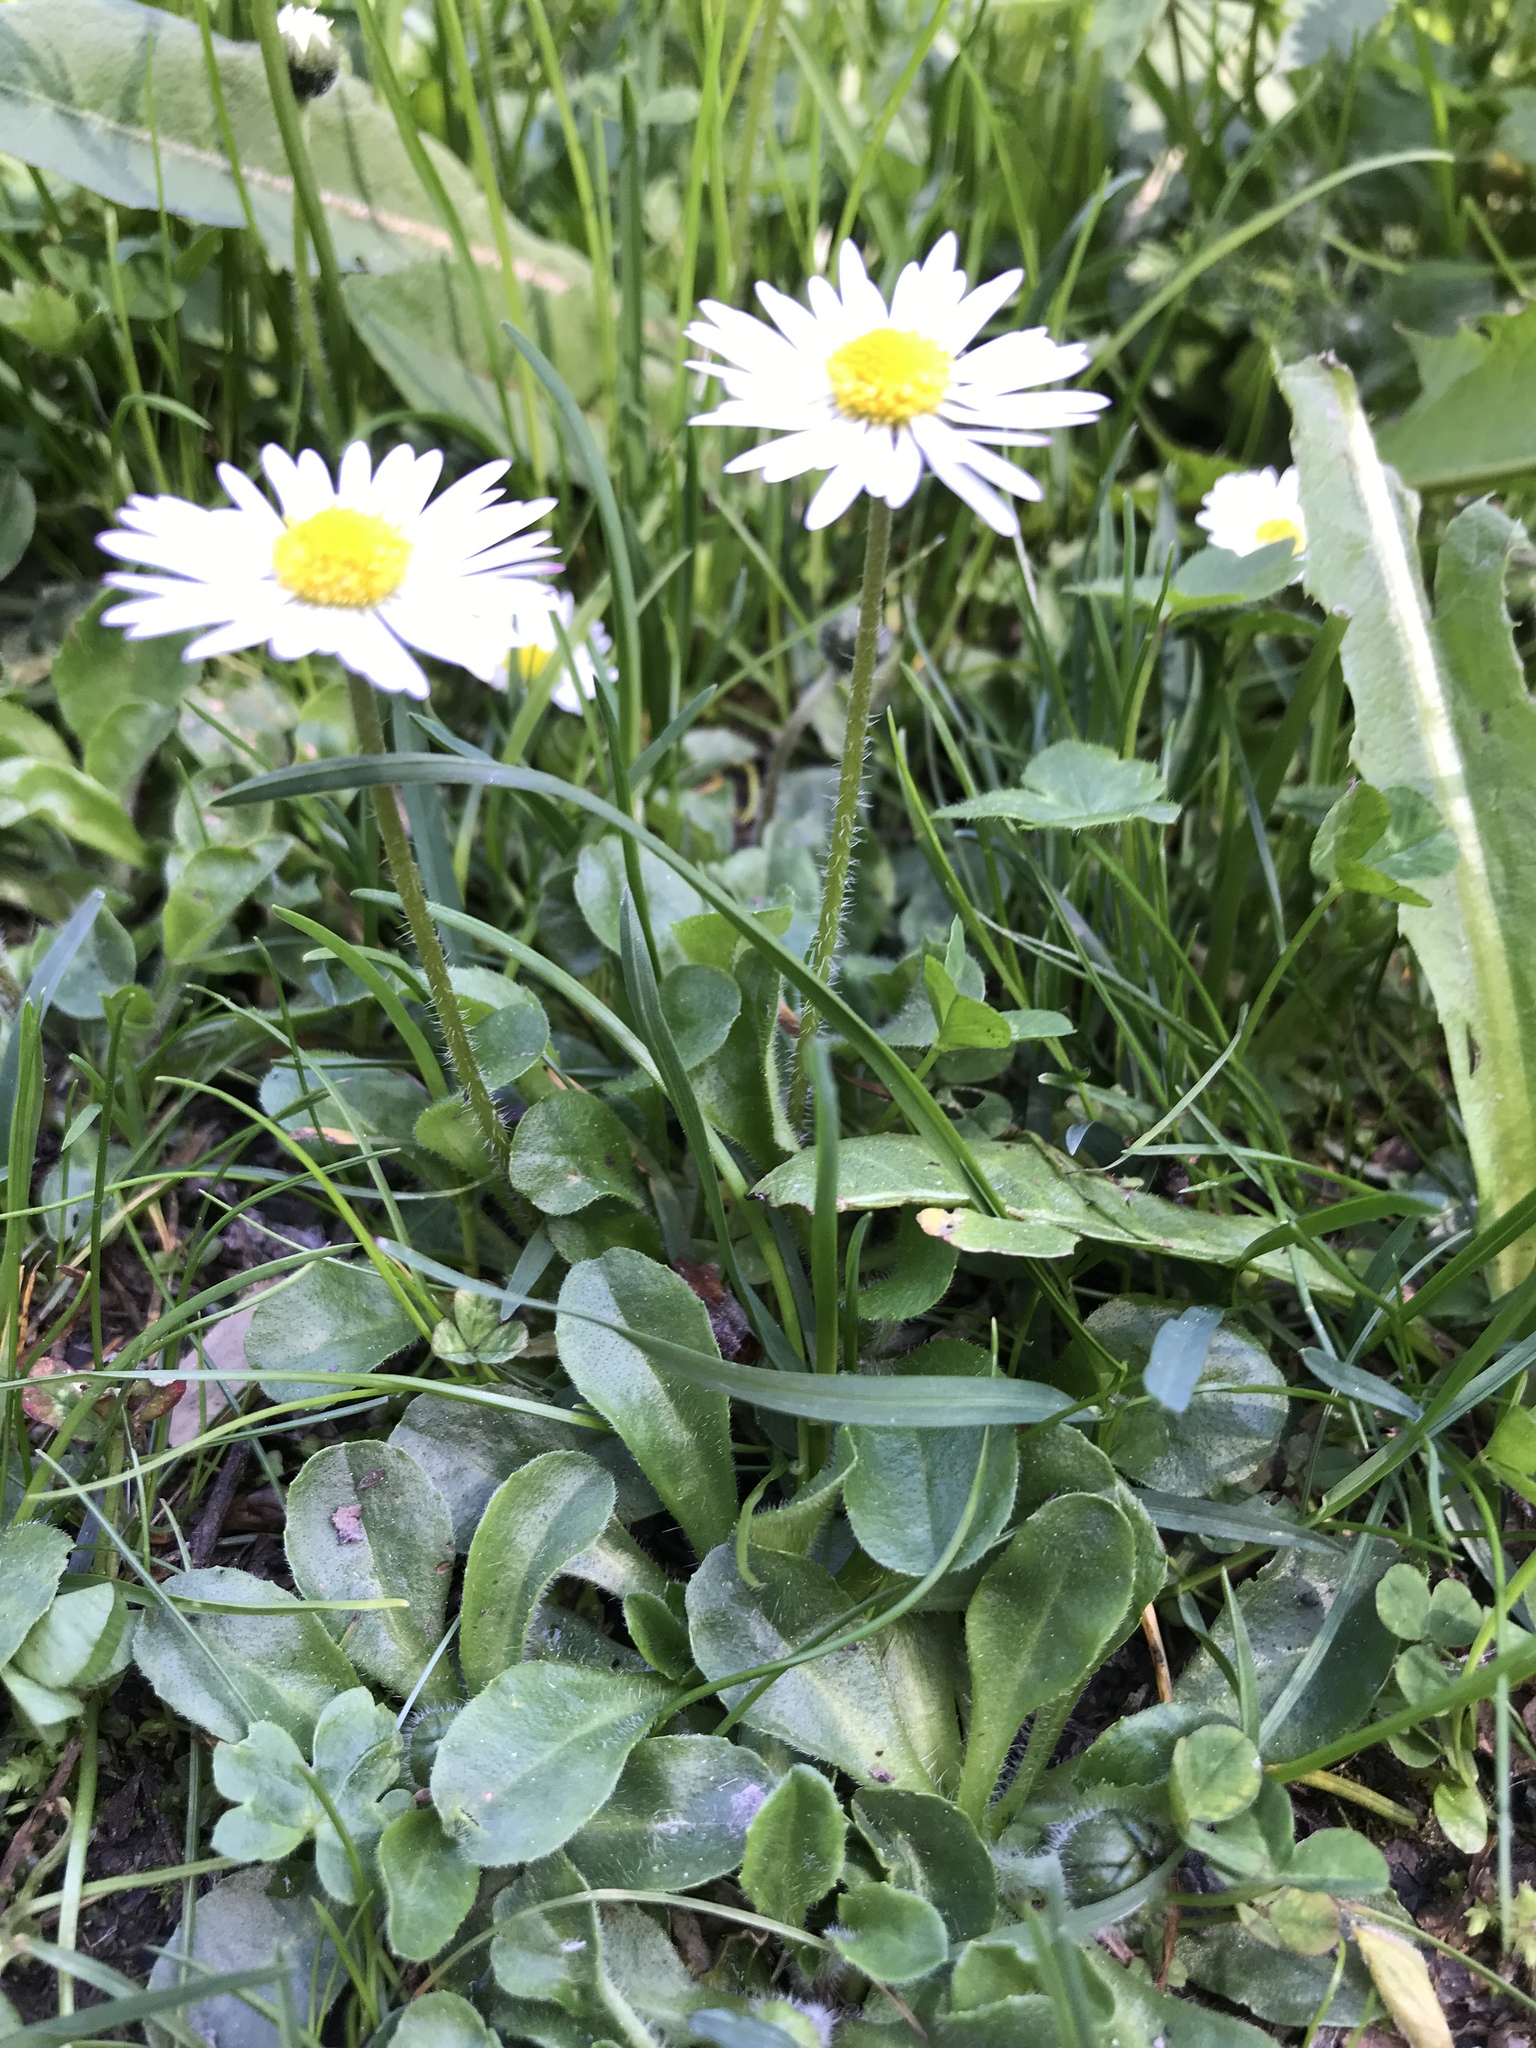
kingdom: Plantae
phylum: Tracheophyta
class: Magnoliopsida
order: Asterales
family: Asteraceae
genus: Bellis
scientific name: Bellis perennis
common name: Lawndaisy
